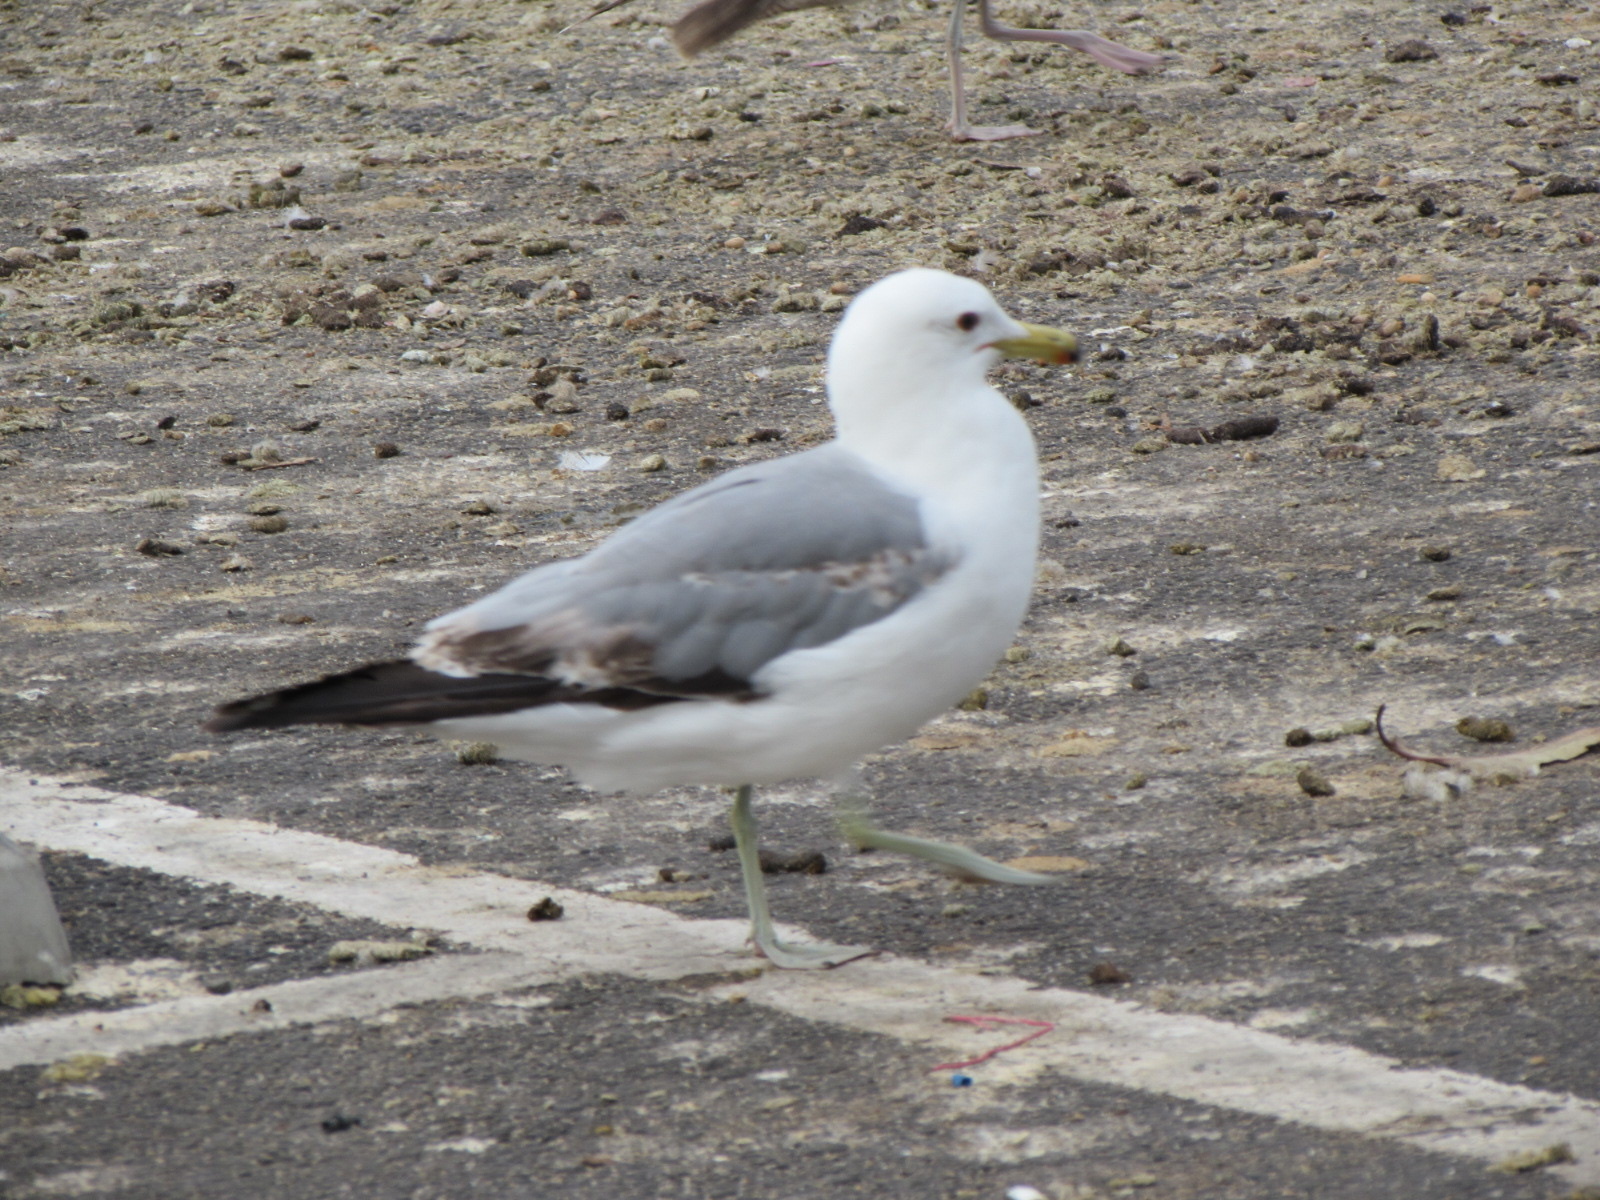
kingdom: Animalia
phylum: Chordata
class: Aves
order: Charadriiformes
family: Laridae
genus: Larus
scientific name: Larus californicus
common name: California gull
